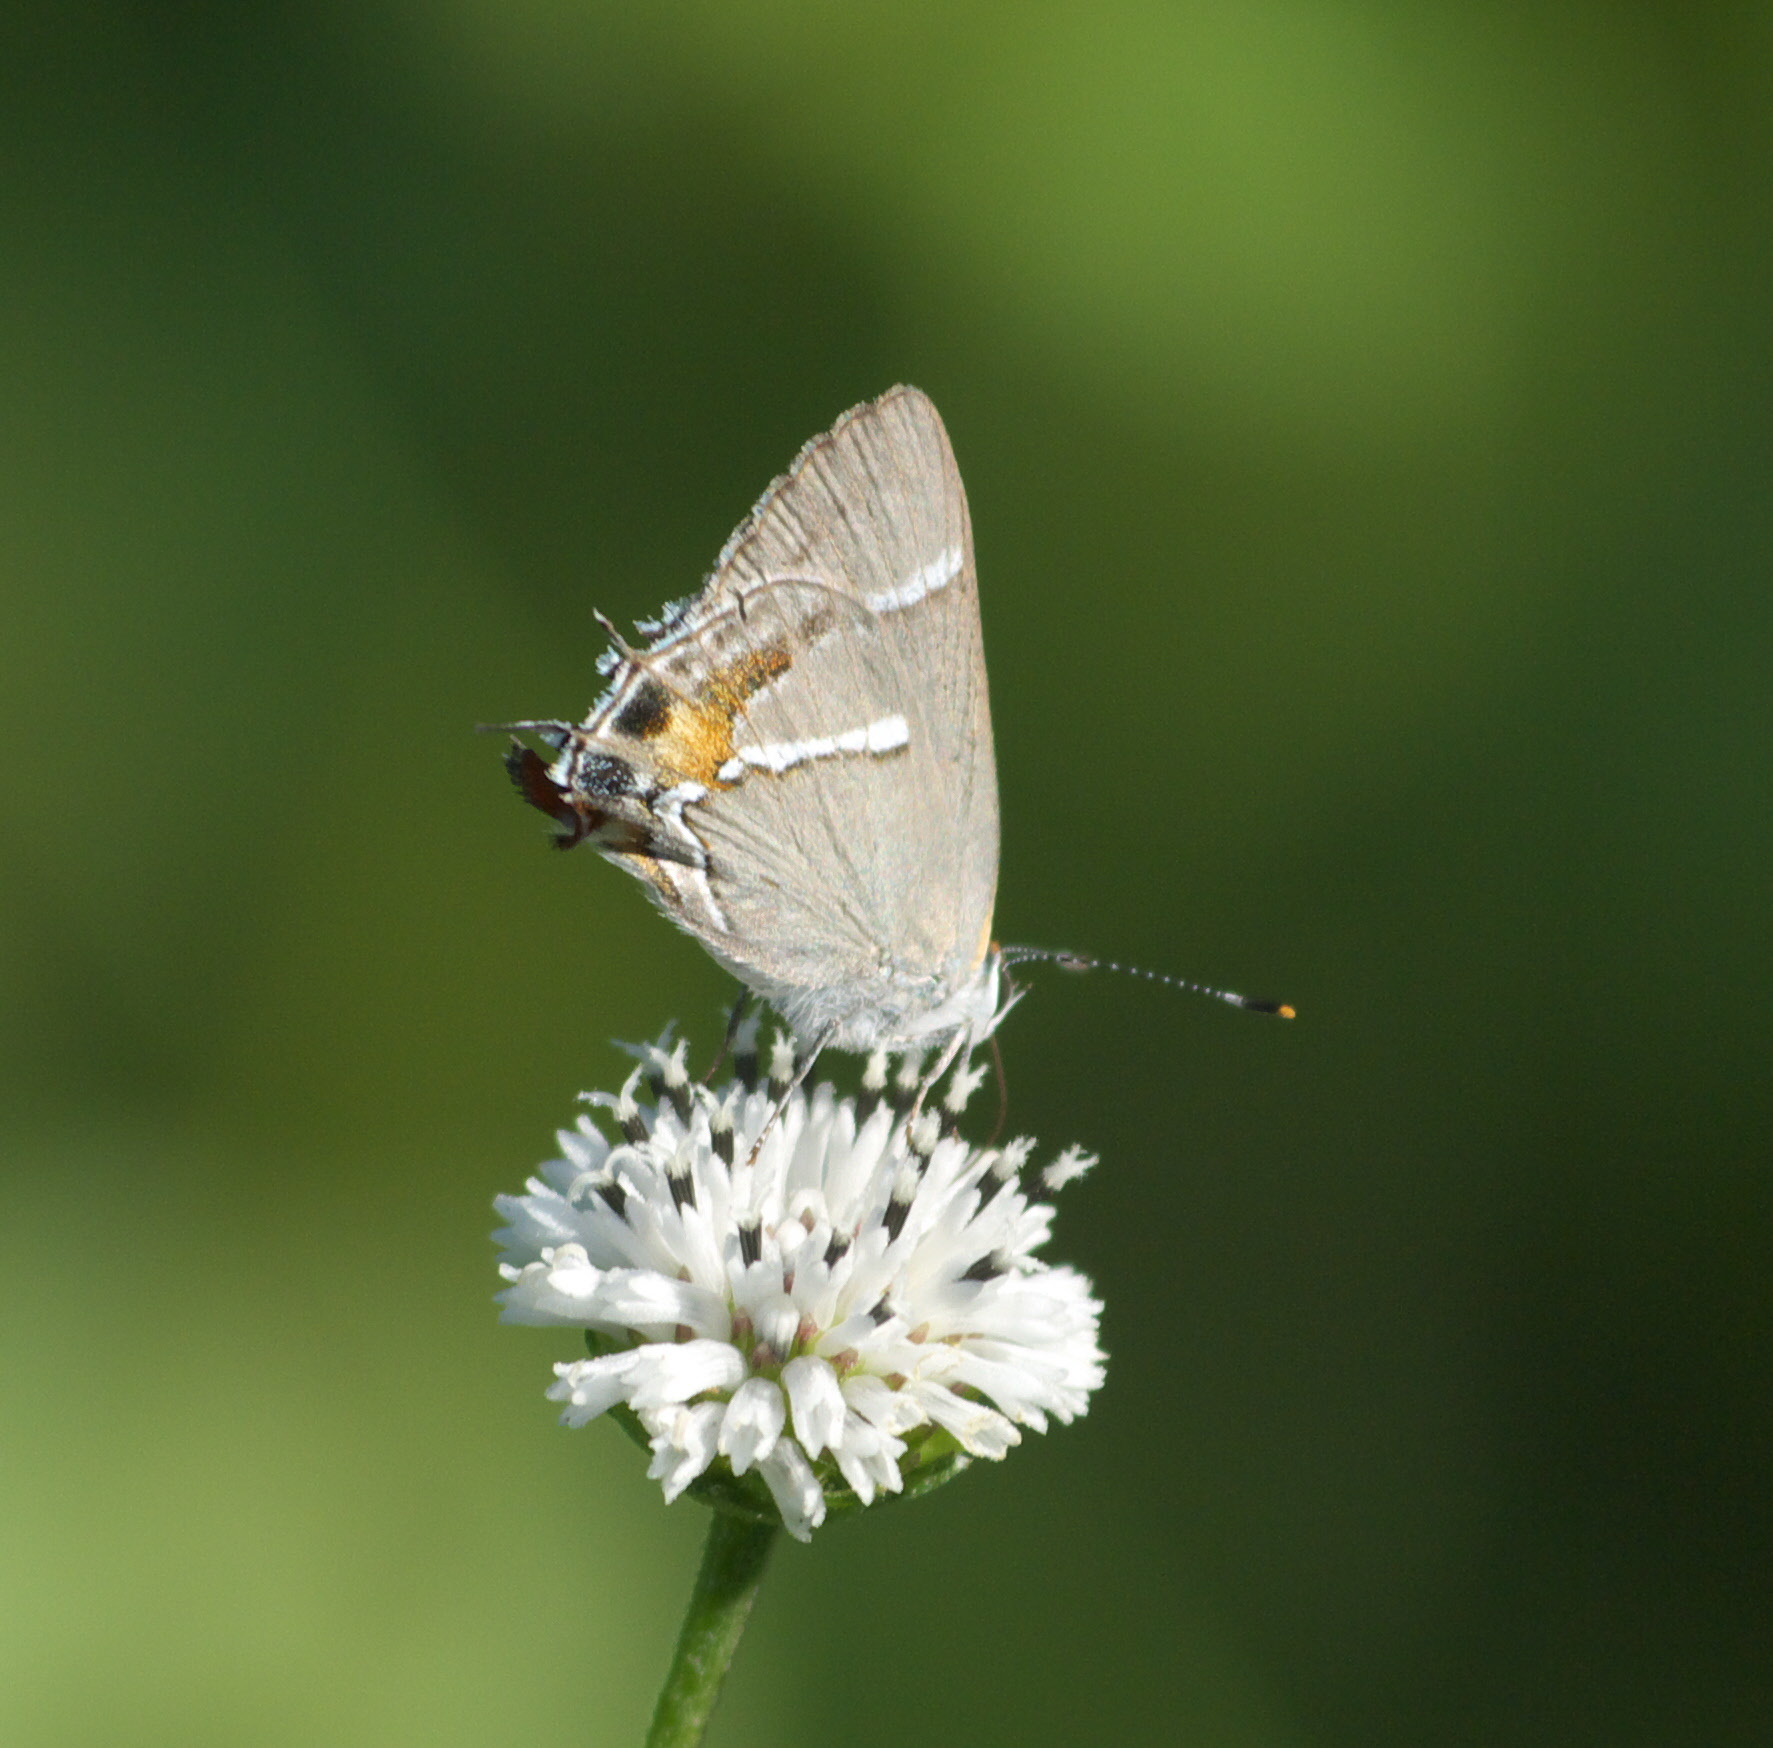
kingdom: Animalia
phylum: Arthropoda
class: Insecta
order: Lepidoptera
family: Lycaenidae
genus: Thecla
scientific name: Thecla martialis
